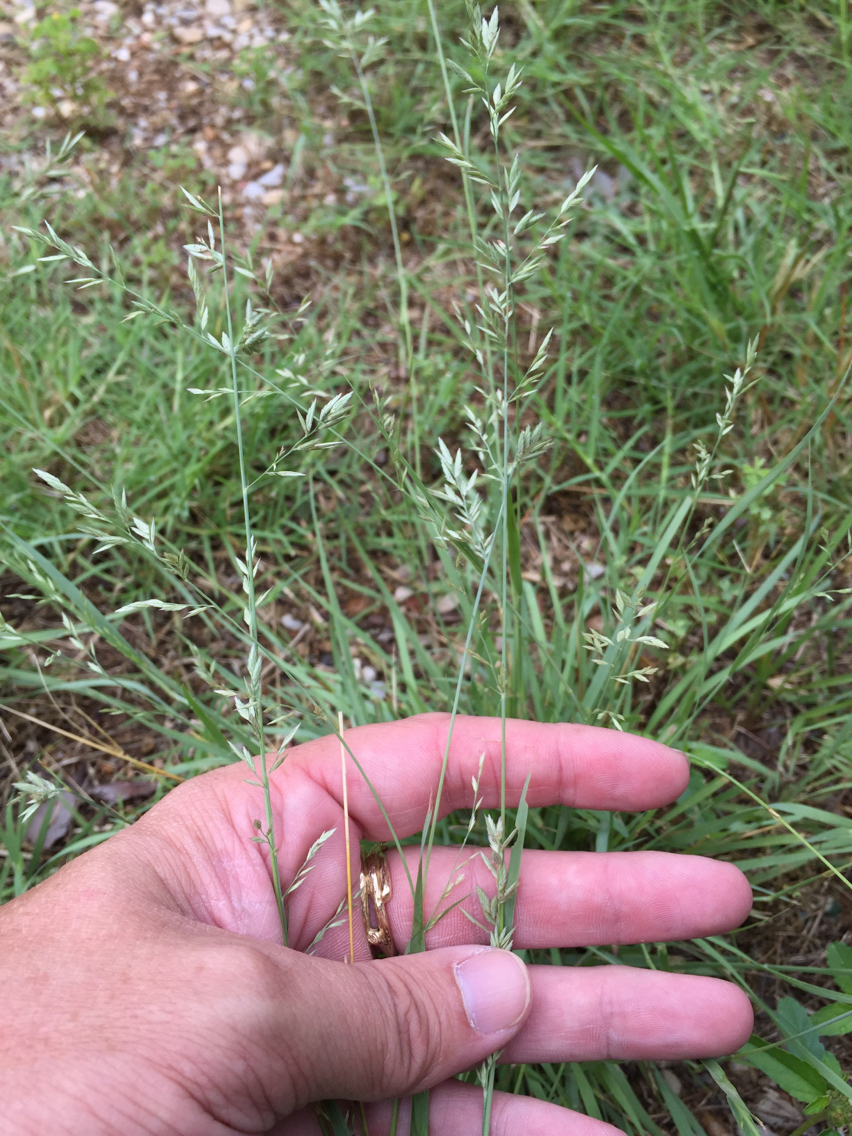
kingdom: Plantae
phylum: Tracheophyta
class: Liliopsida
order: Poales
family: Poaceae
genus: Eragrostis
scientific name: Eragrostis secundiflora
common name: Red love grass
